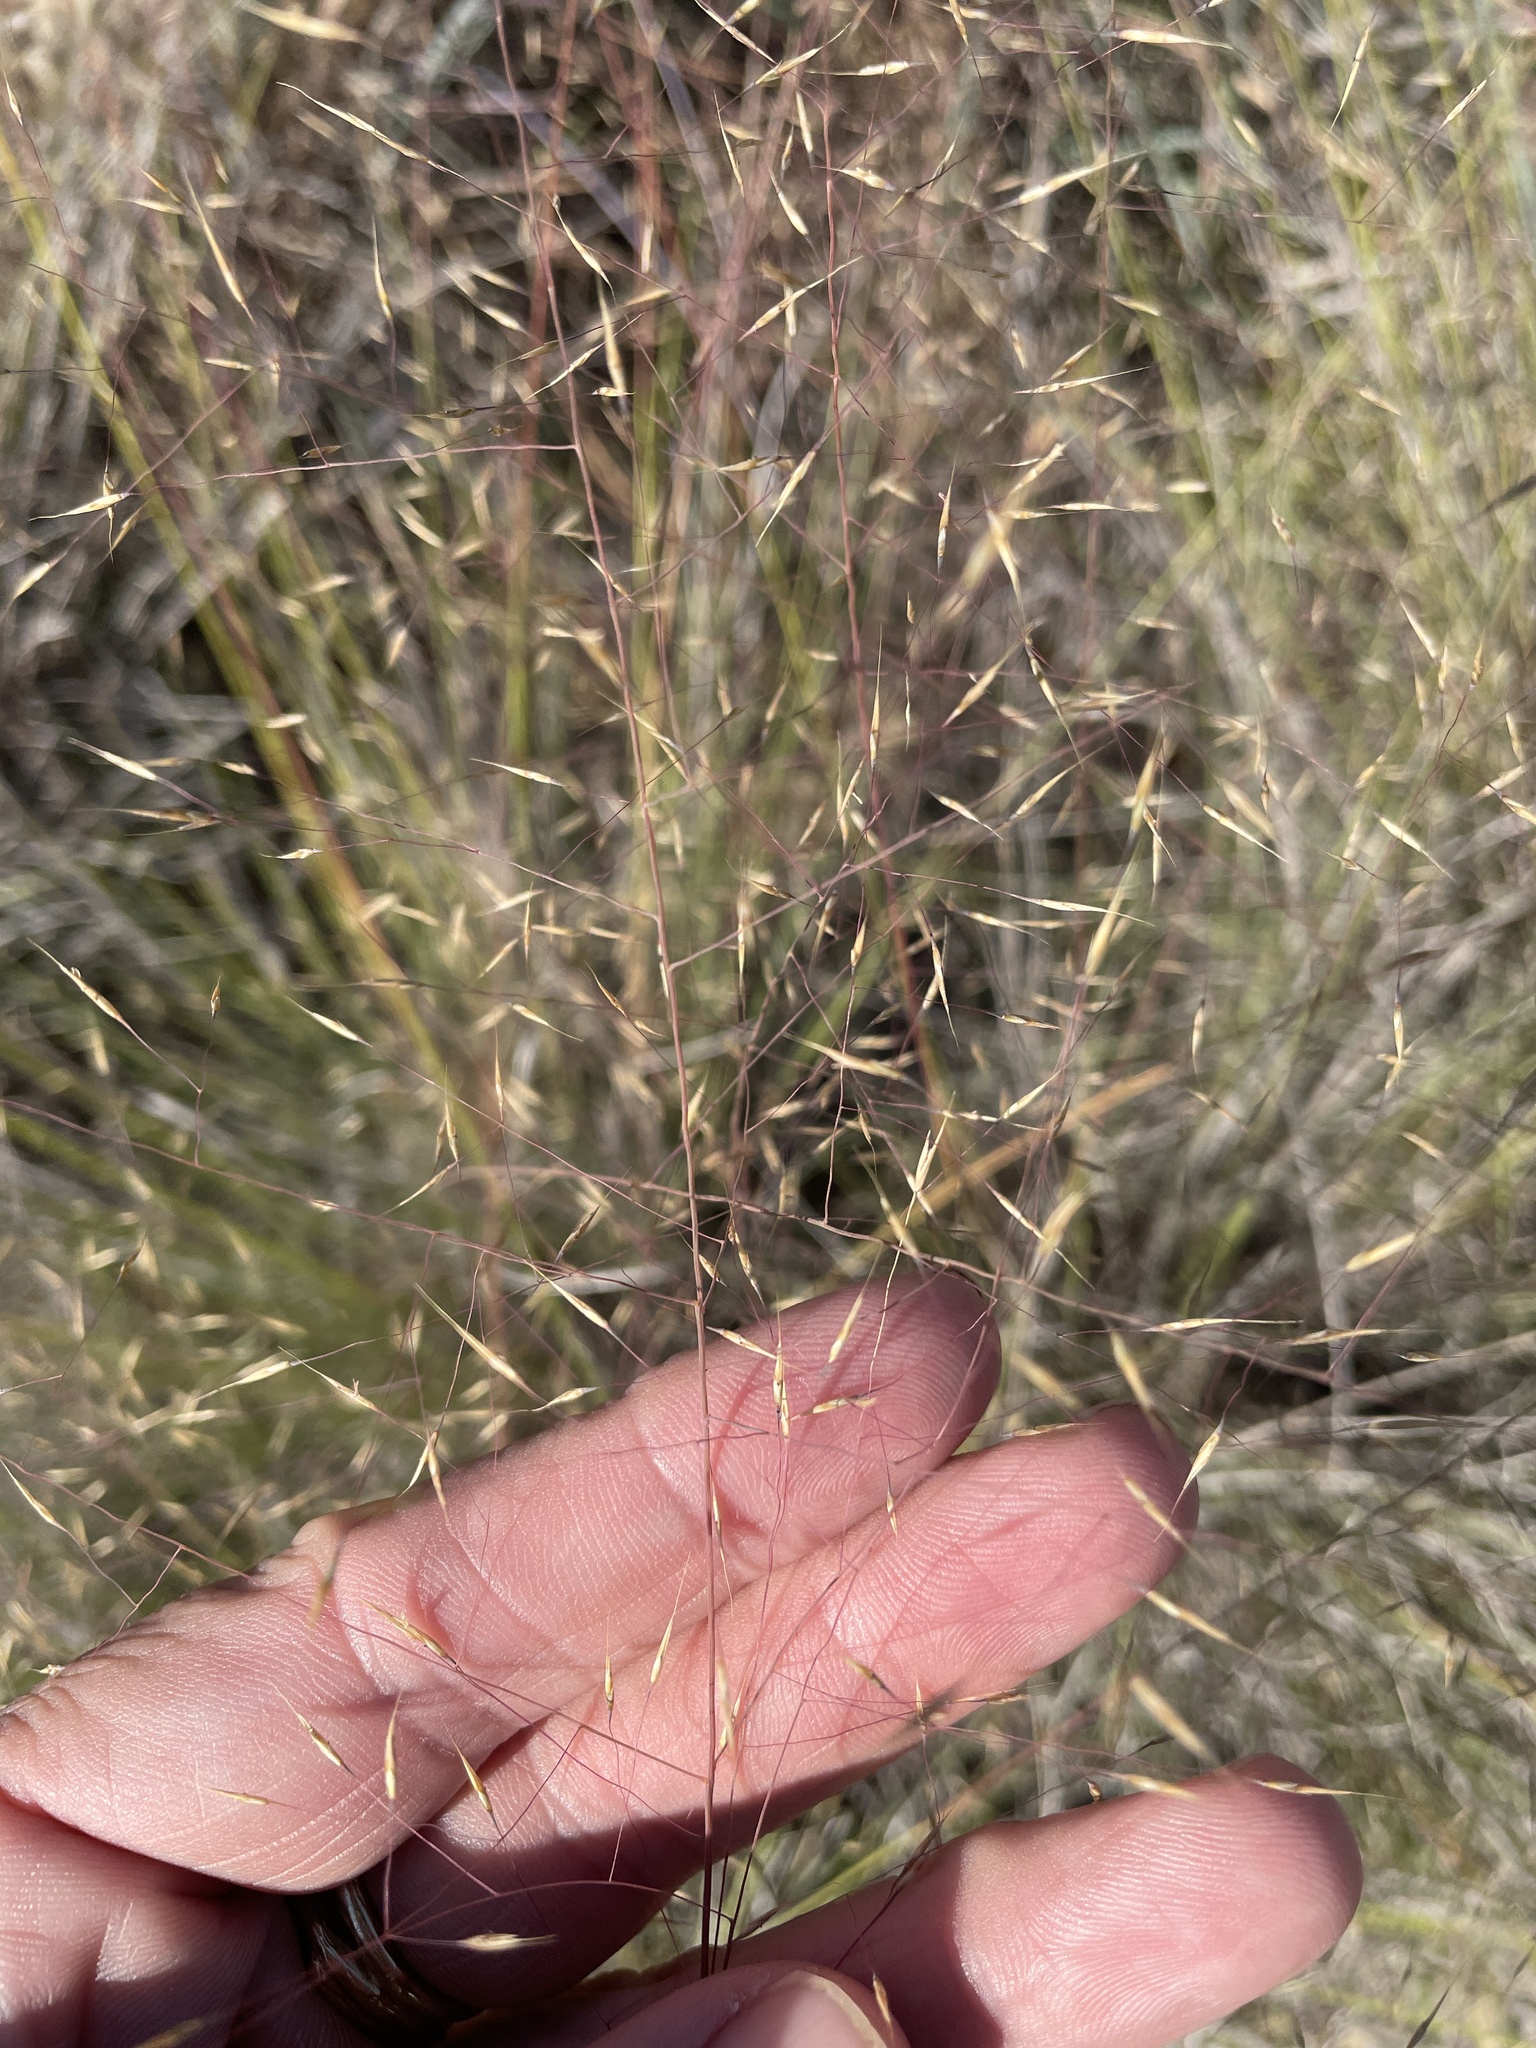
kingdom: Plantae
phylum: Tracheophyta
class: Liliopsida
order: Poales
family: Poaceae
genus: Muhlenbergia
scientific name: Muhlenbergia reverchonii
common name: Seep muhly
